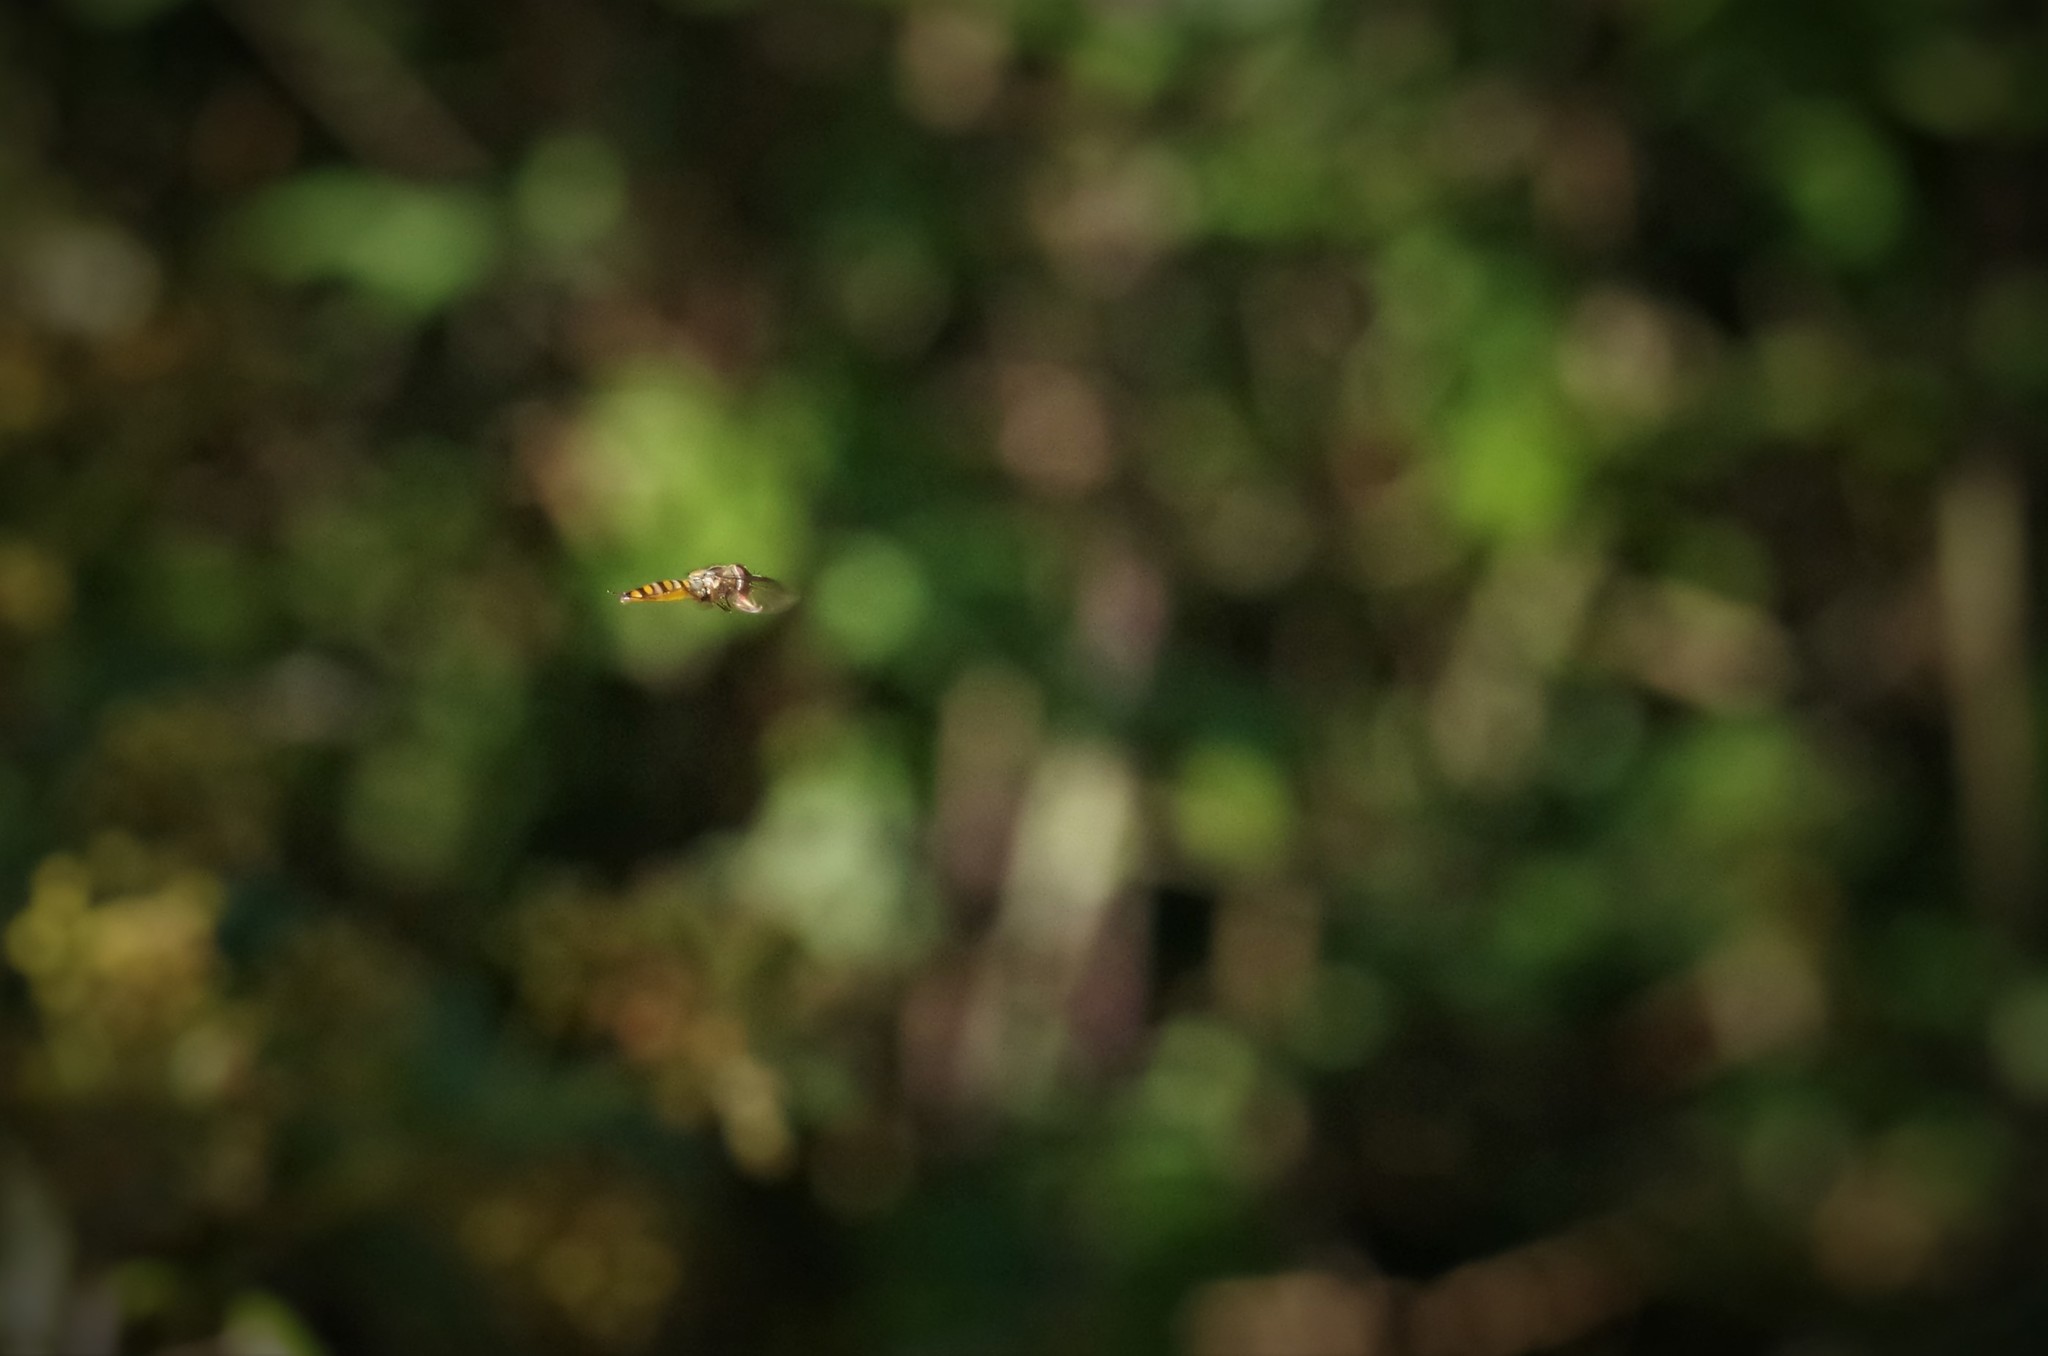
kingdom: Animalia
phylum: Arthropoda
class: Insecta
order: Diptera
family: Syrphidae
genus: Episyrphus
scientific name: Episyrphus balteatus
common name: Marmalade hoverfly
